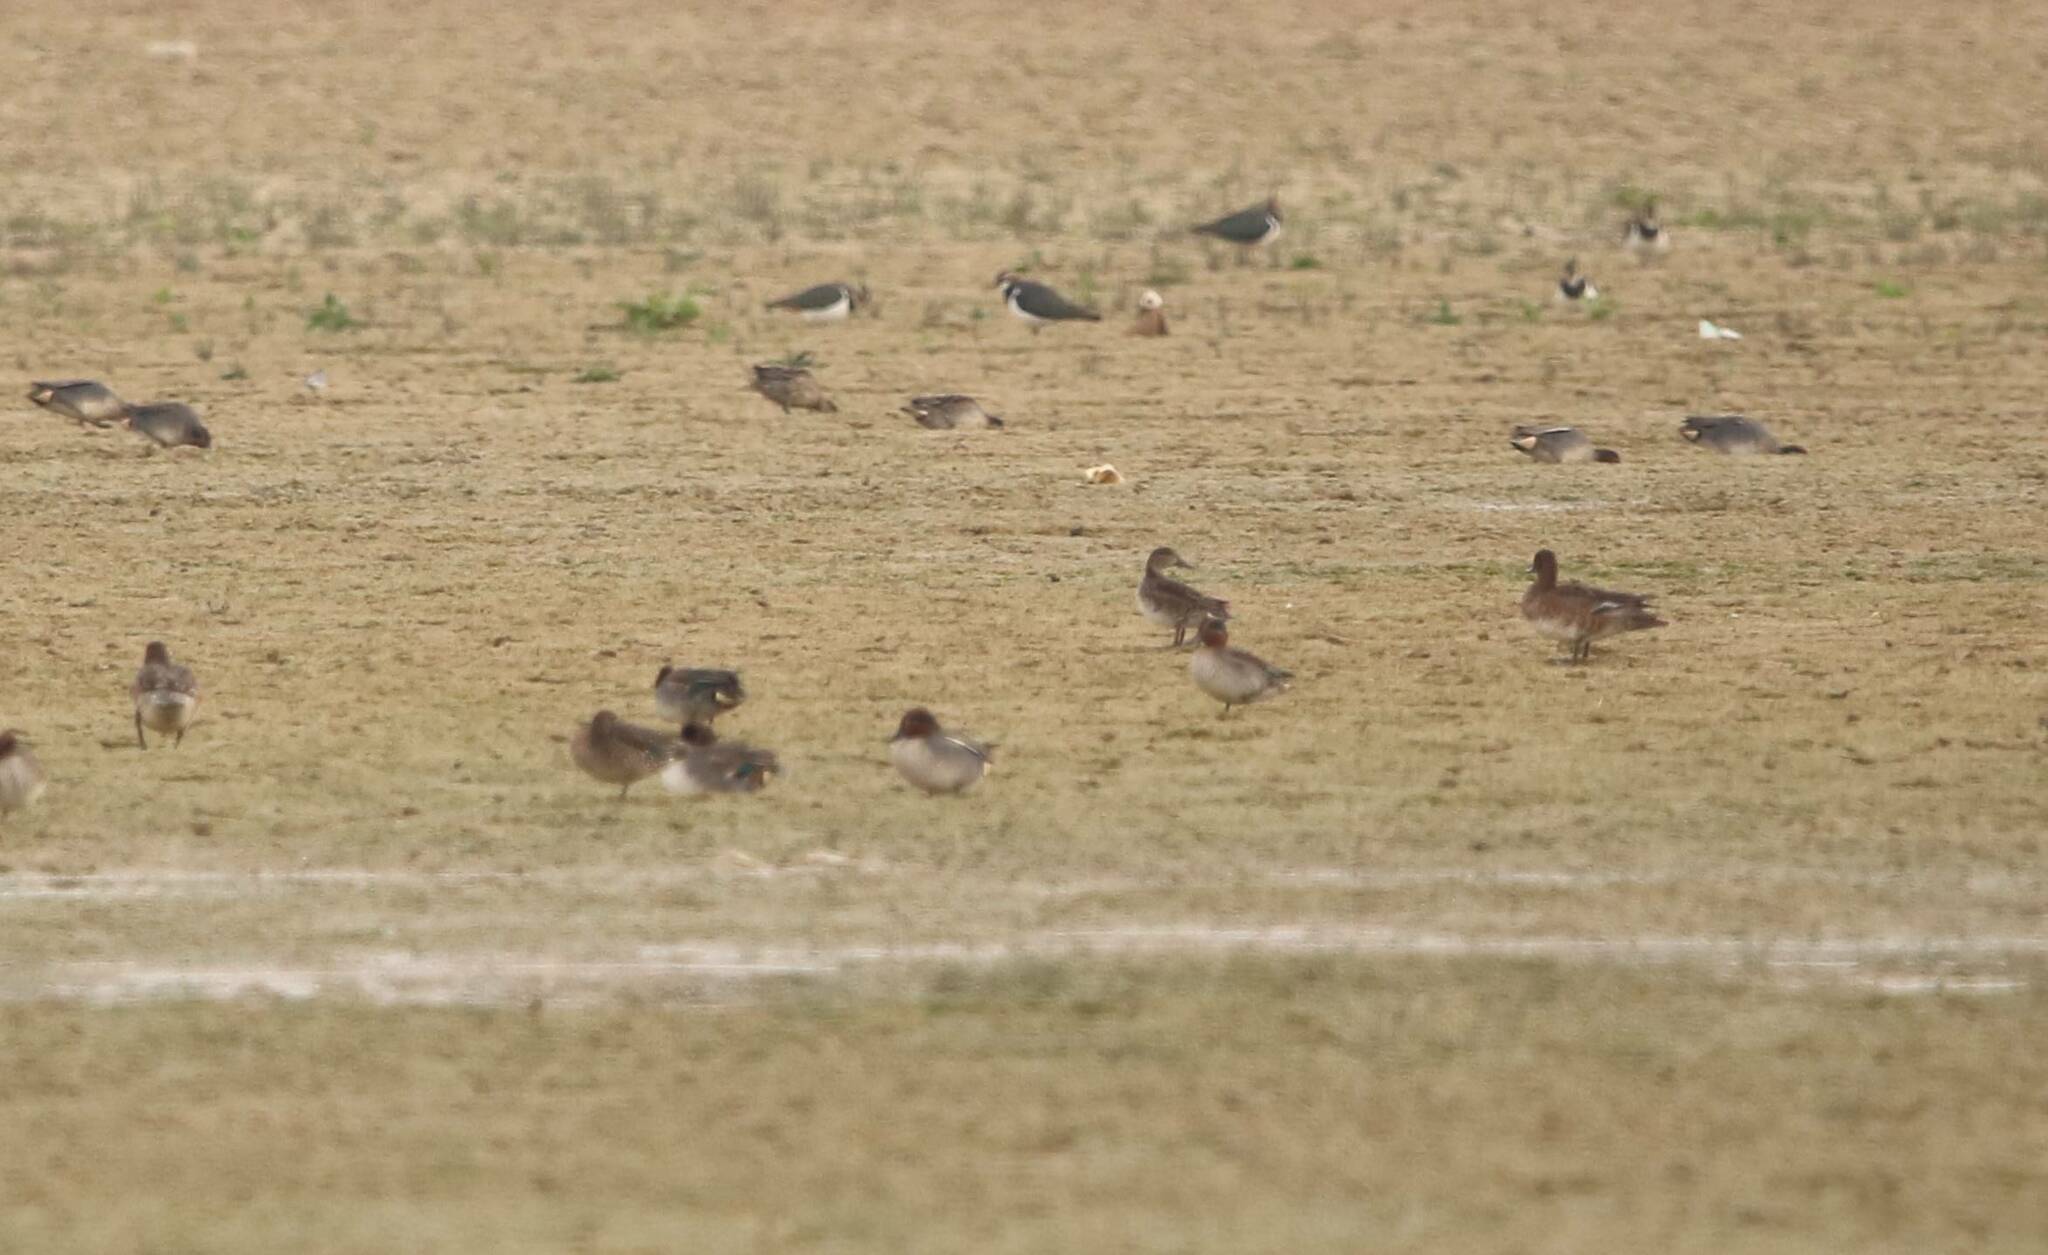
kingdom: Animalia
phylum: Chordata
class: Aves
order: Anseriformes
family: Anatidae
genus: Anas
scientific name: Anas crecca
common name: Eurasian teal
